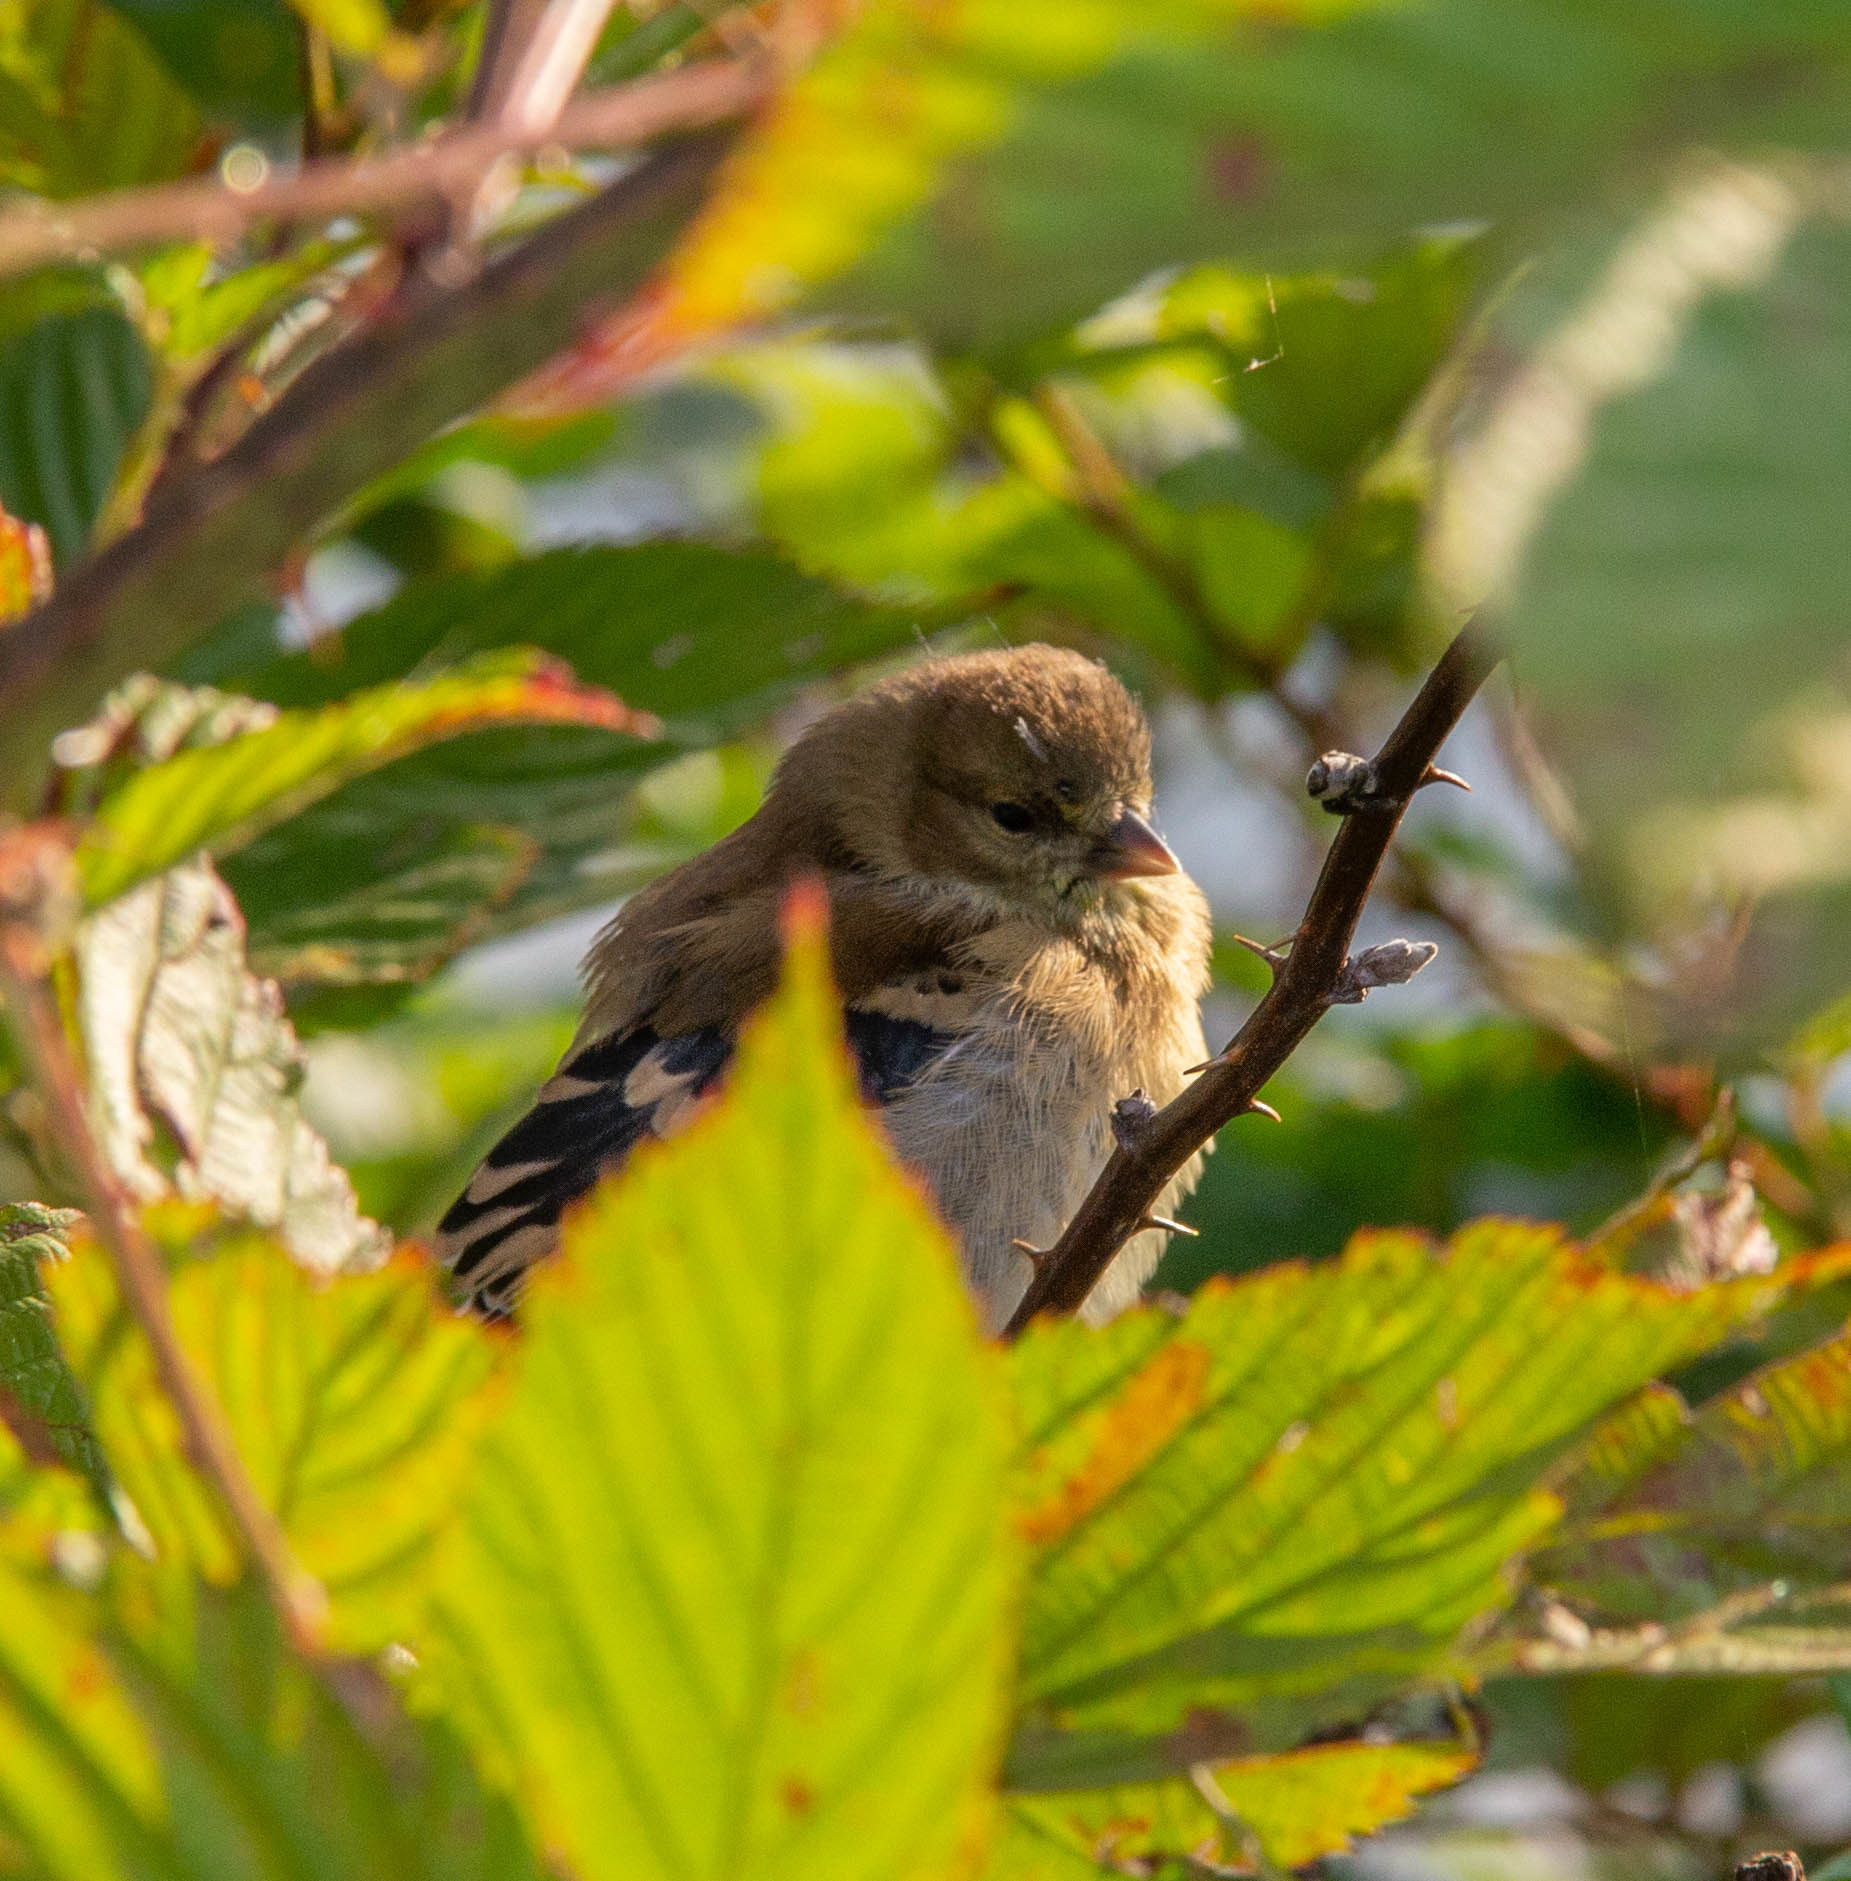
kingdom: Animalia
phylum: Chordata
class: Aves
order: Passeriformes
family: Fringillidae
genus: Spinus
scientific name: Spinus tristis
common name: American goldfinch
